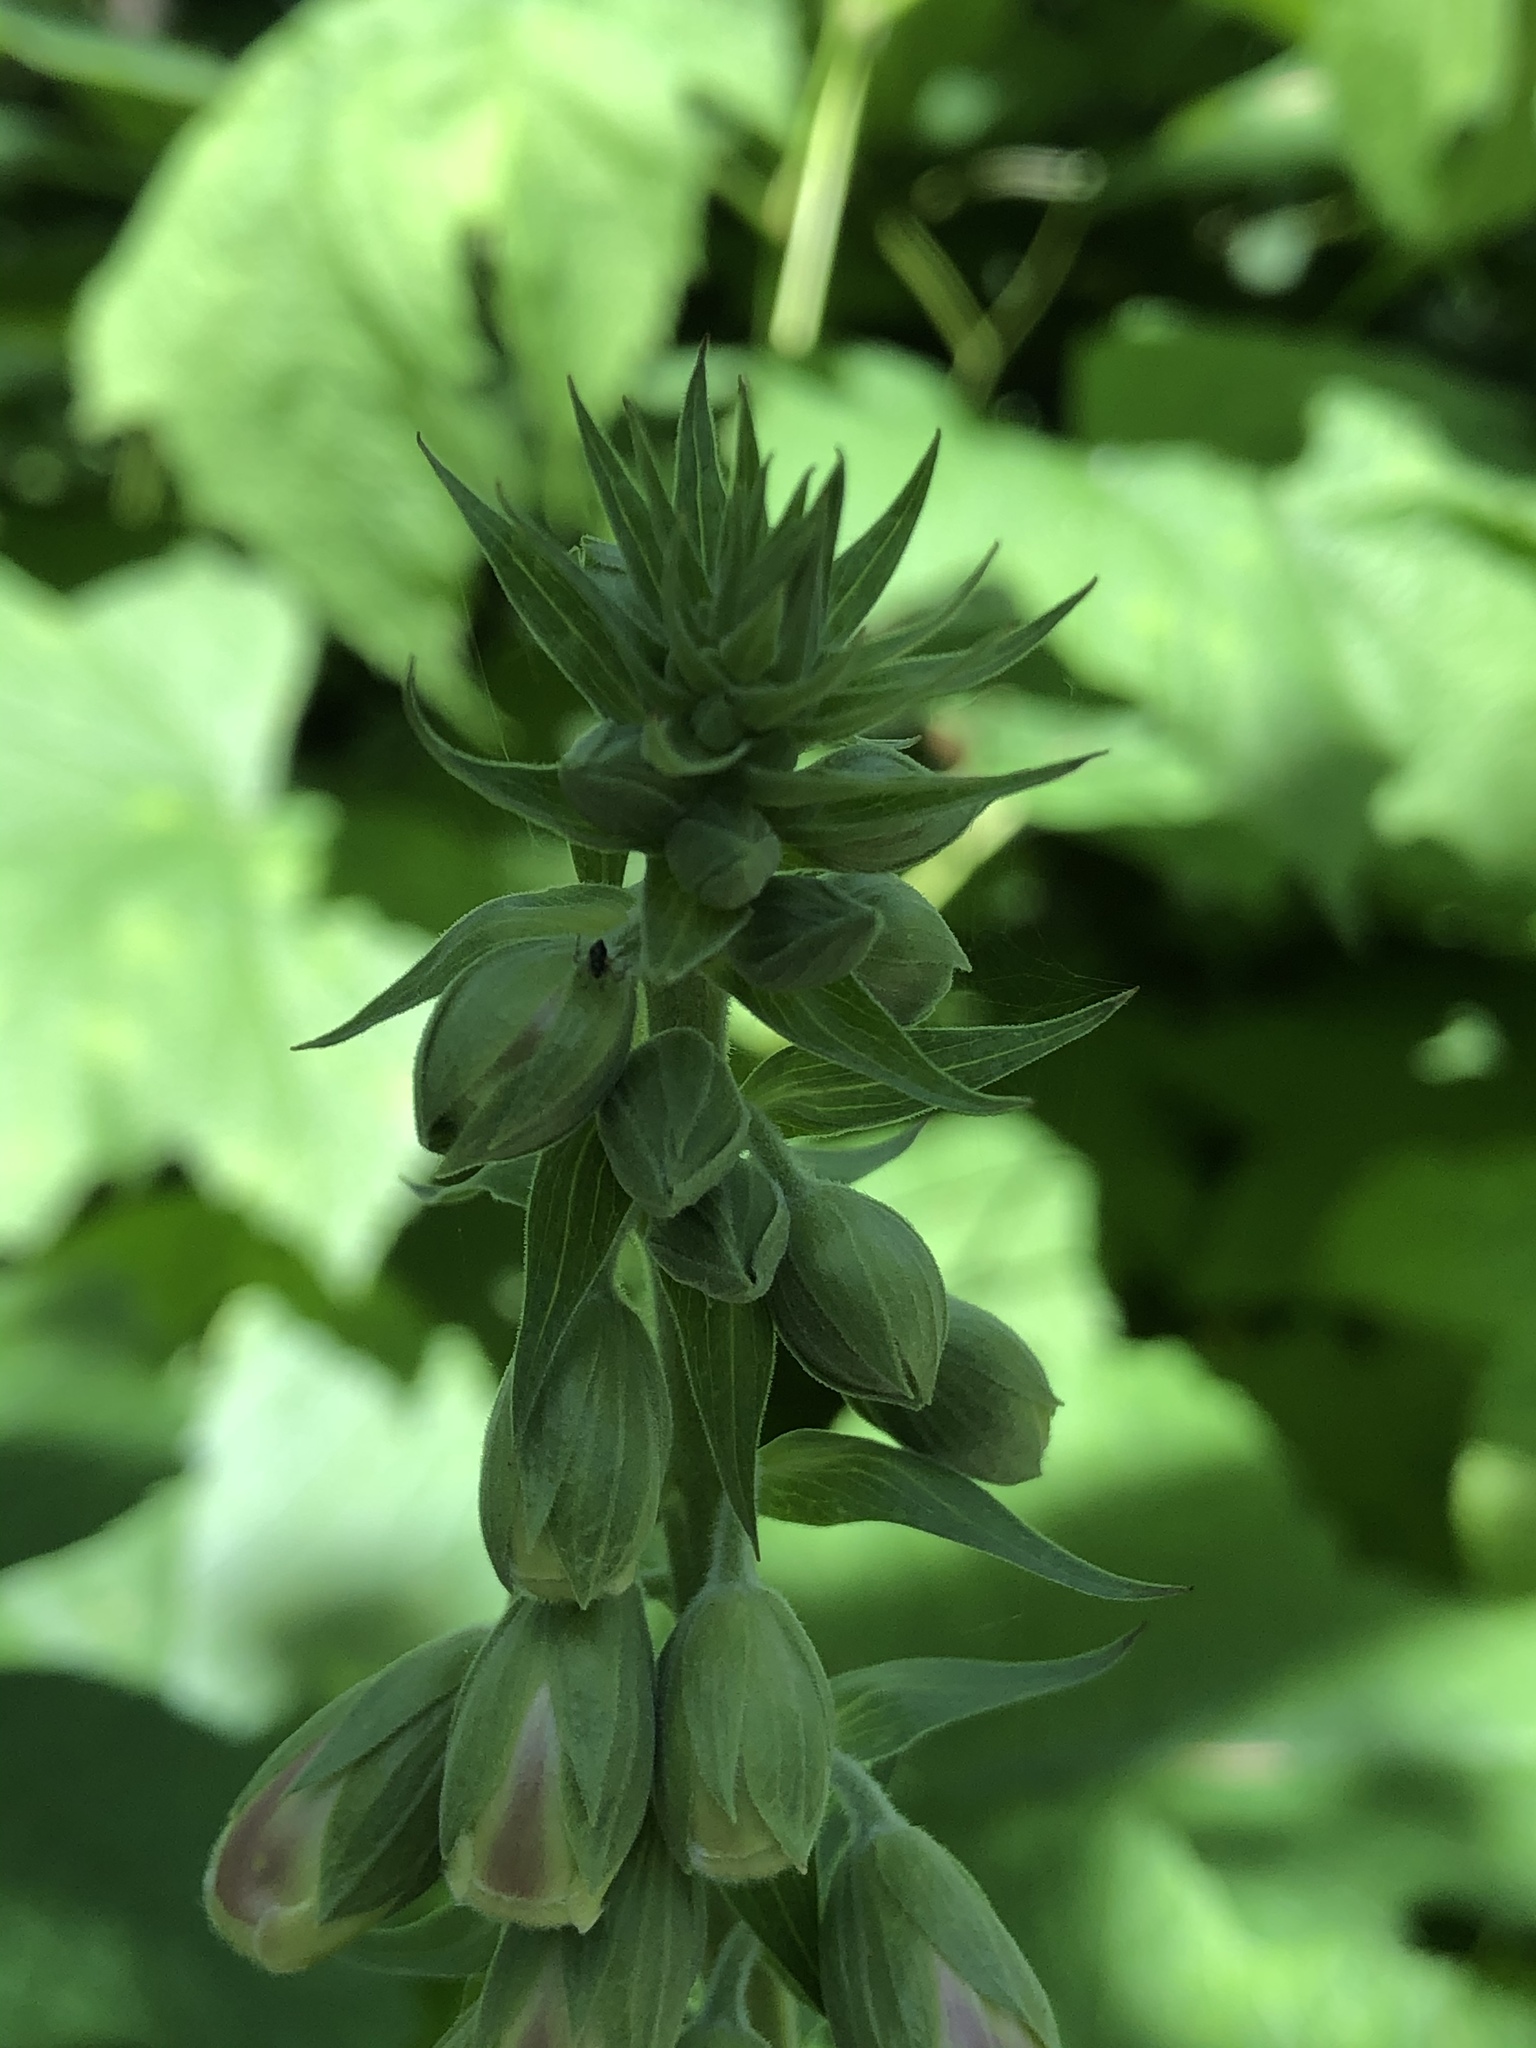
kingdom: Plantae
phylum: Tracheophyta
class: Magnoliopsida
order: Lamiales
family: Plantaginaceae
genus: Digitalis
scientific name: Digitalis purpurea
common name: Foxglove
